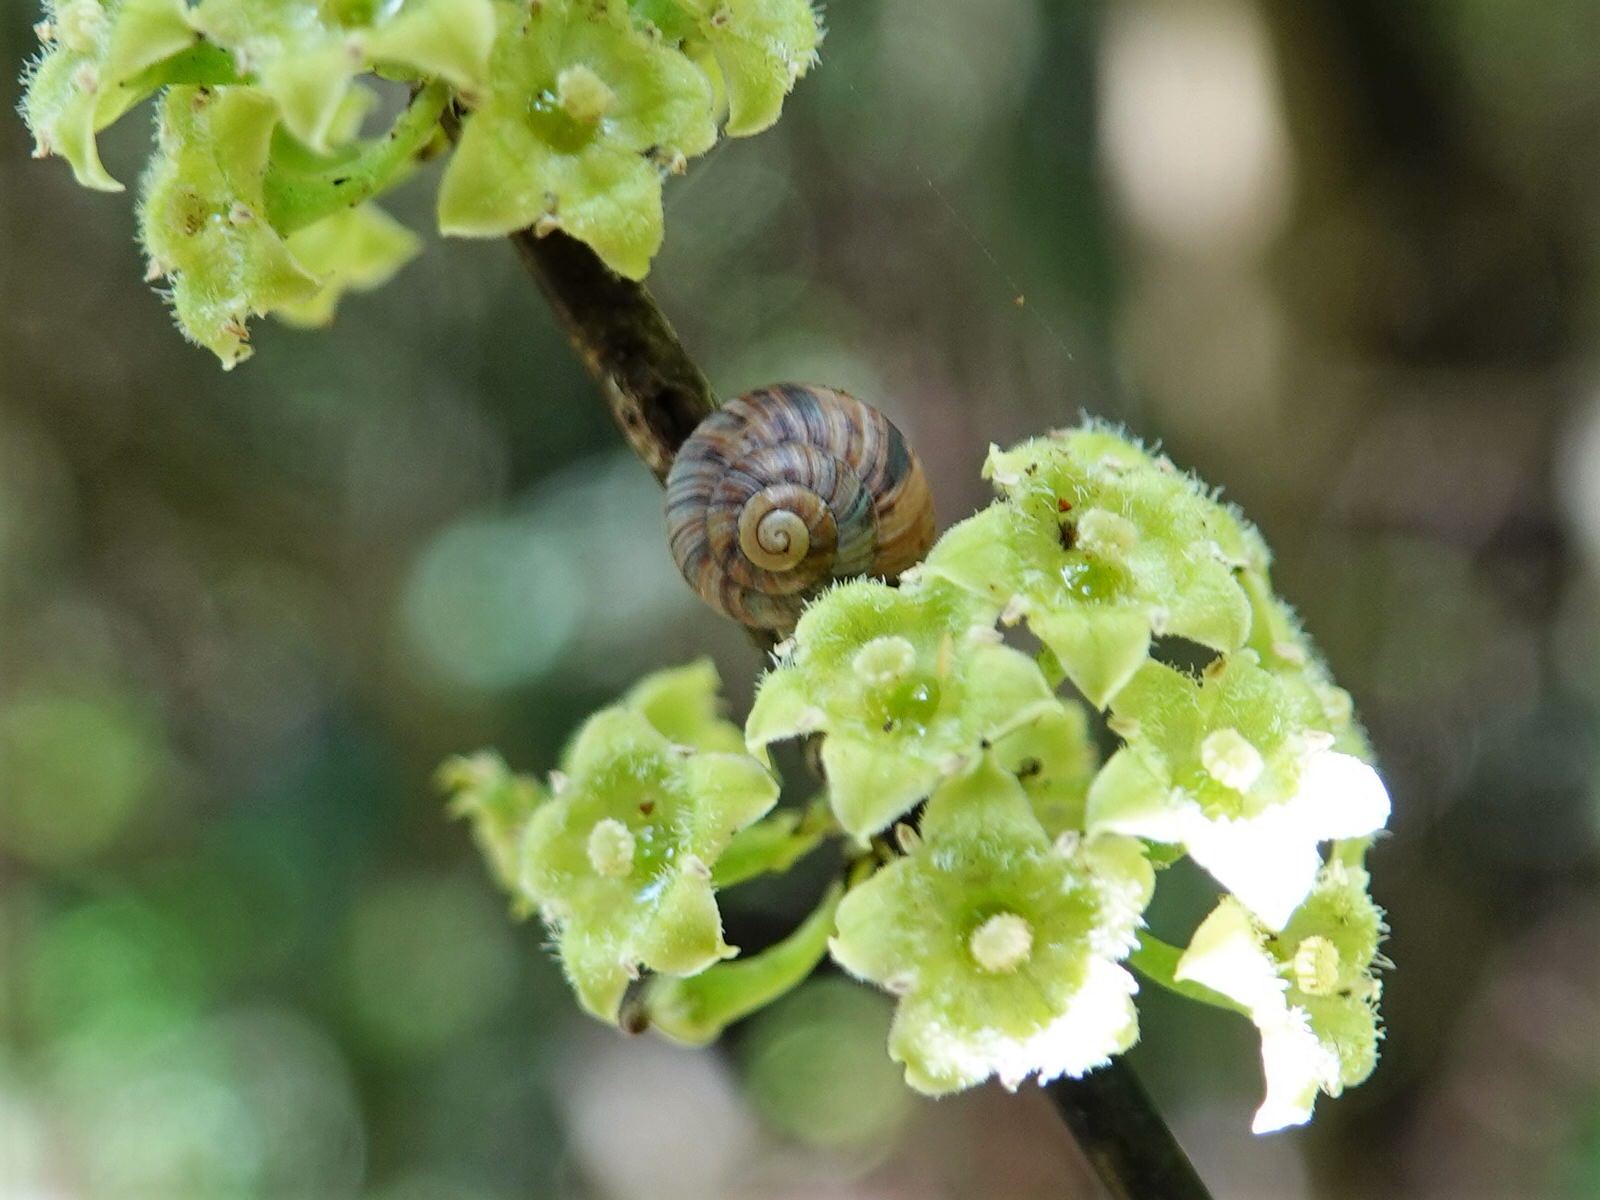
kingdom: Animalia
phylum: Mollusca
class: Gastropoda
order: Stylommatophora
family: Charopidae
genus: Serpho
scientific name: Serpho
